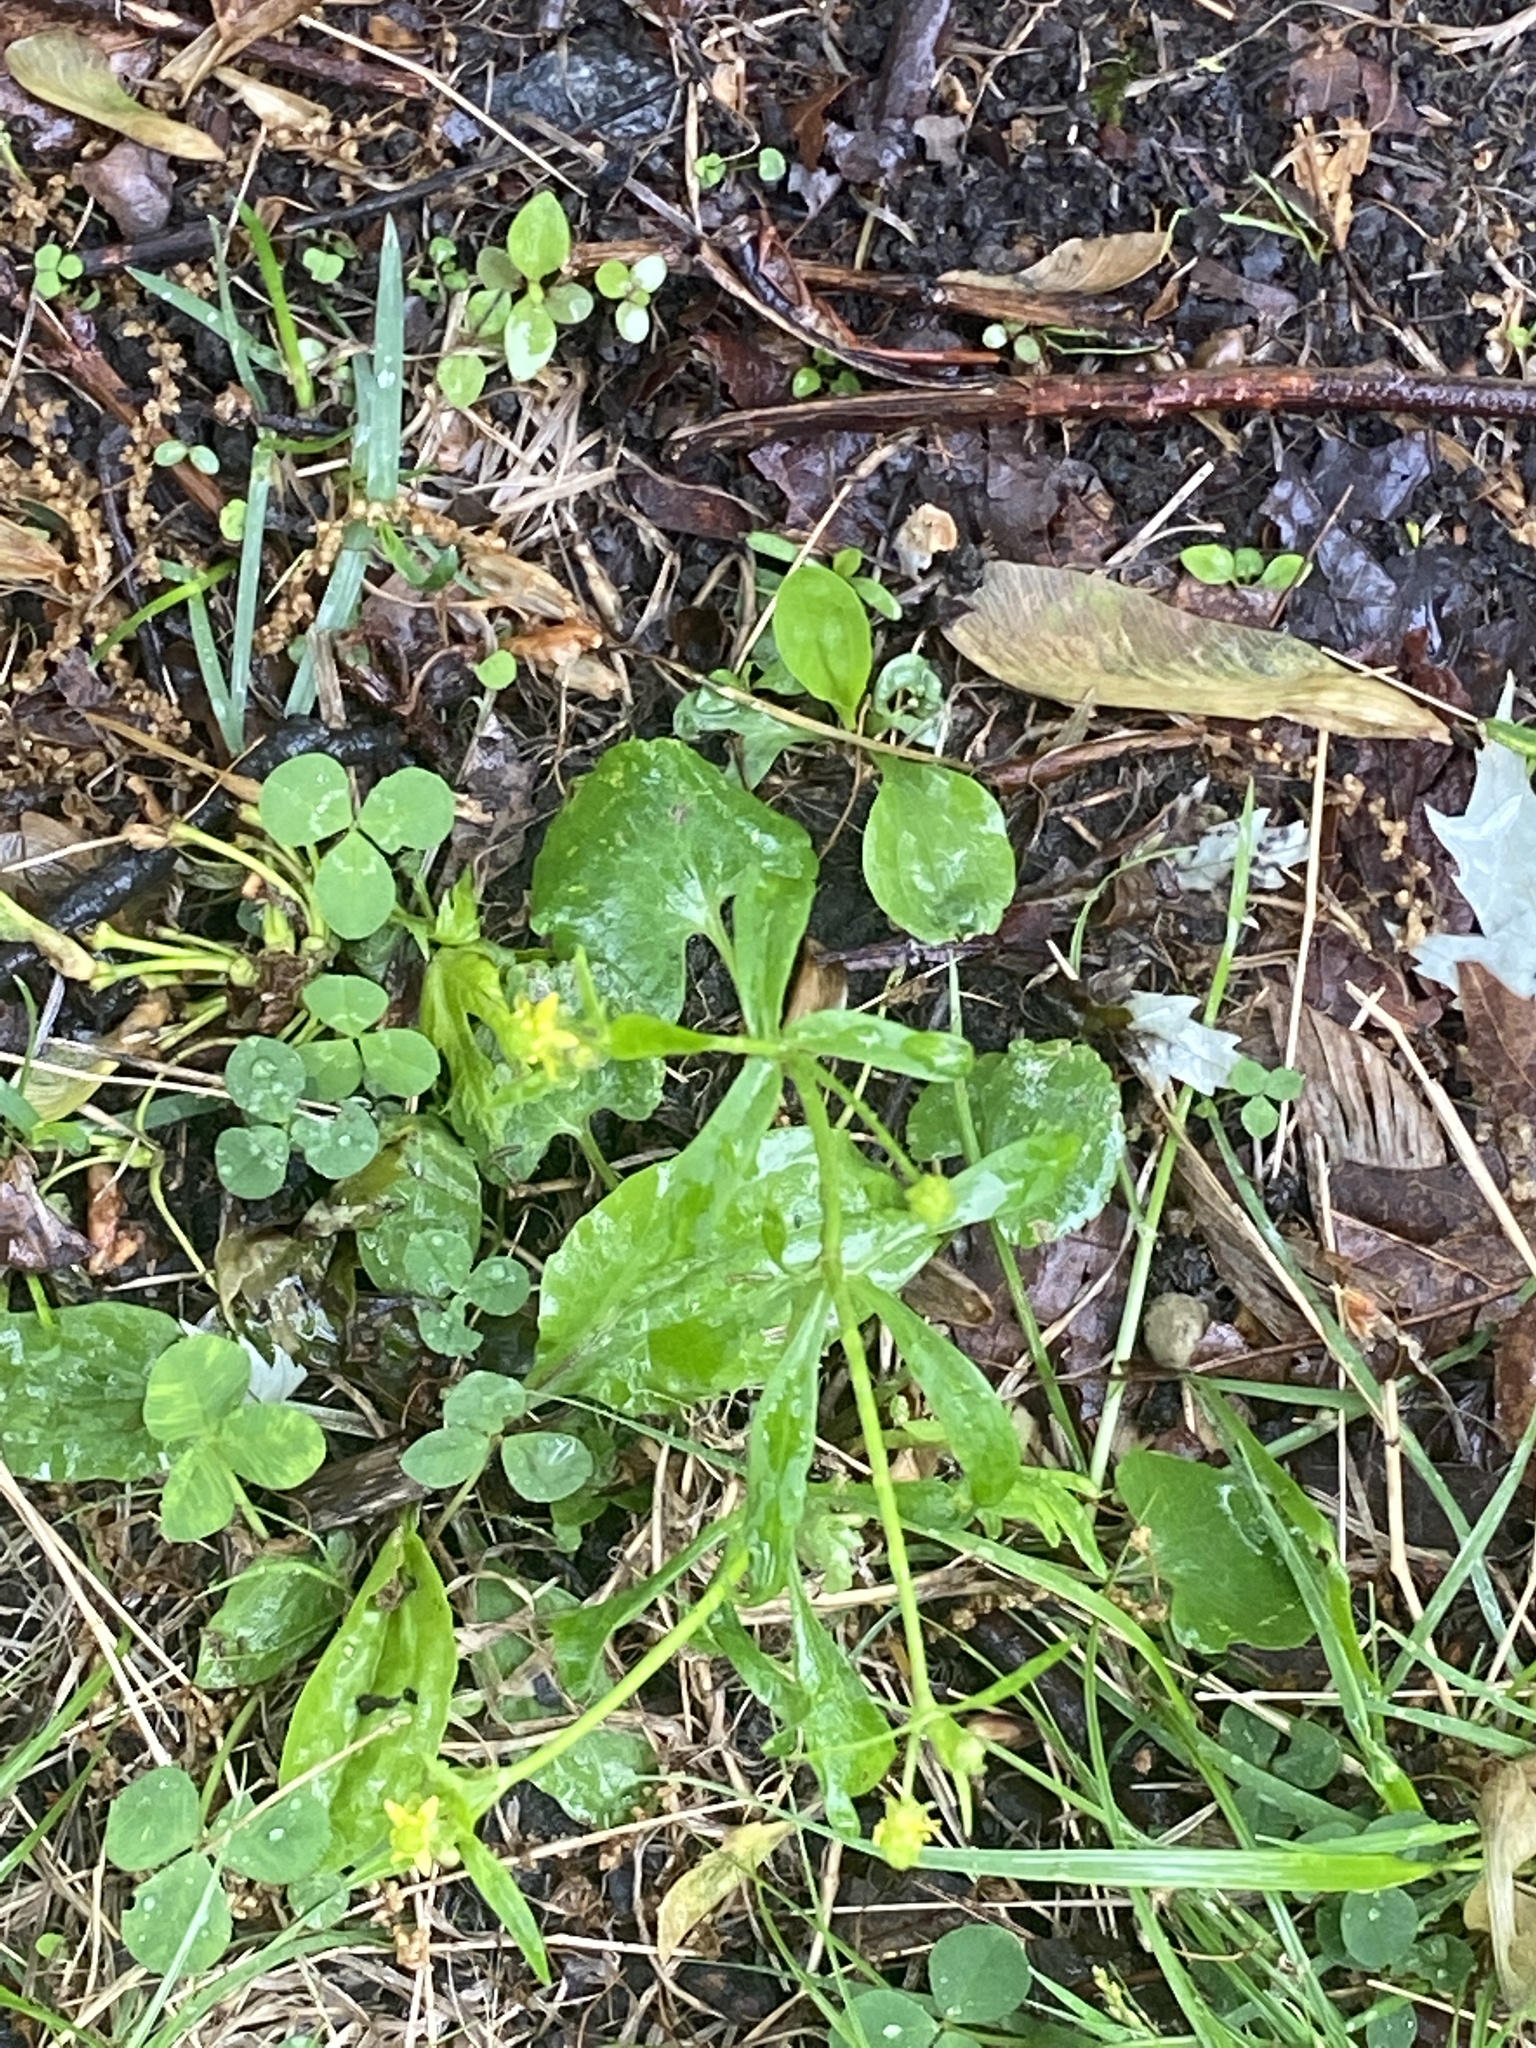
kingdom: Plantae
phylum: Tracheophyta
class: Magnoliopsida
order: Ranunculales
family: Ranunculaceae
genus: Ranunculus
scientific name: Ranunculus abortivus
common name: Early wood buttercup
